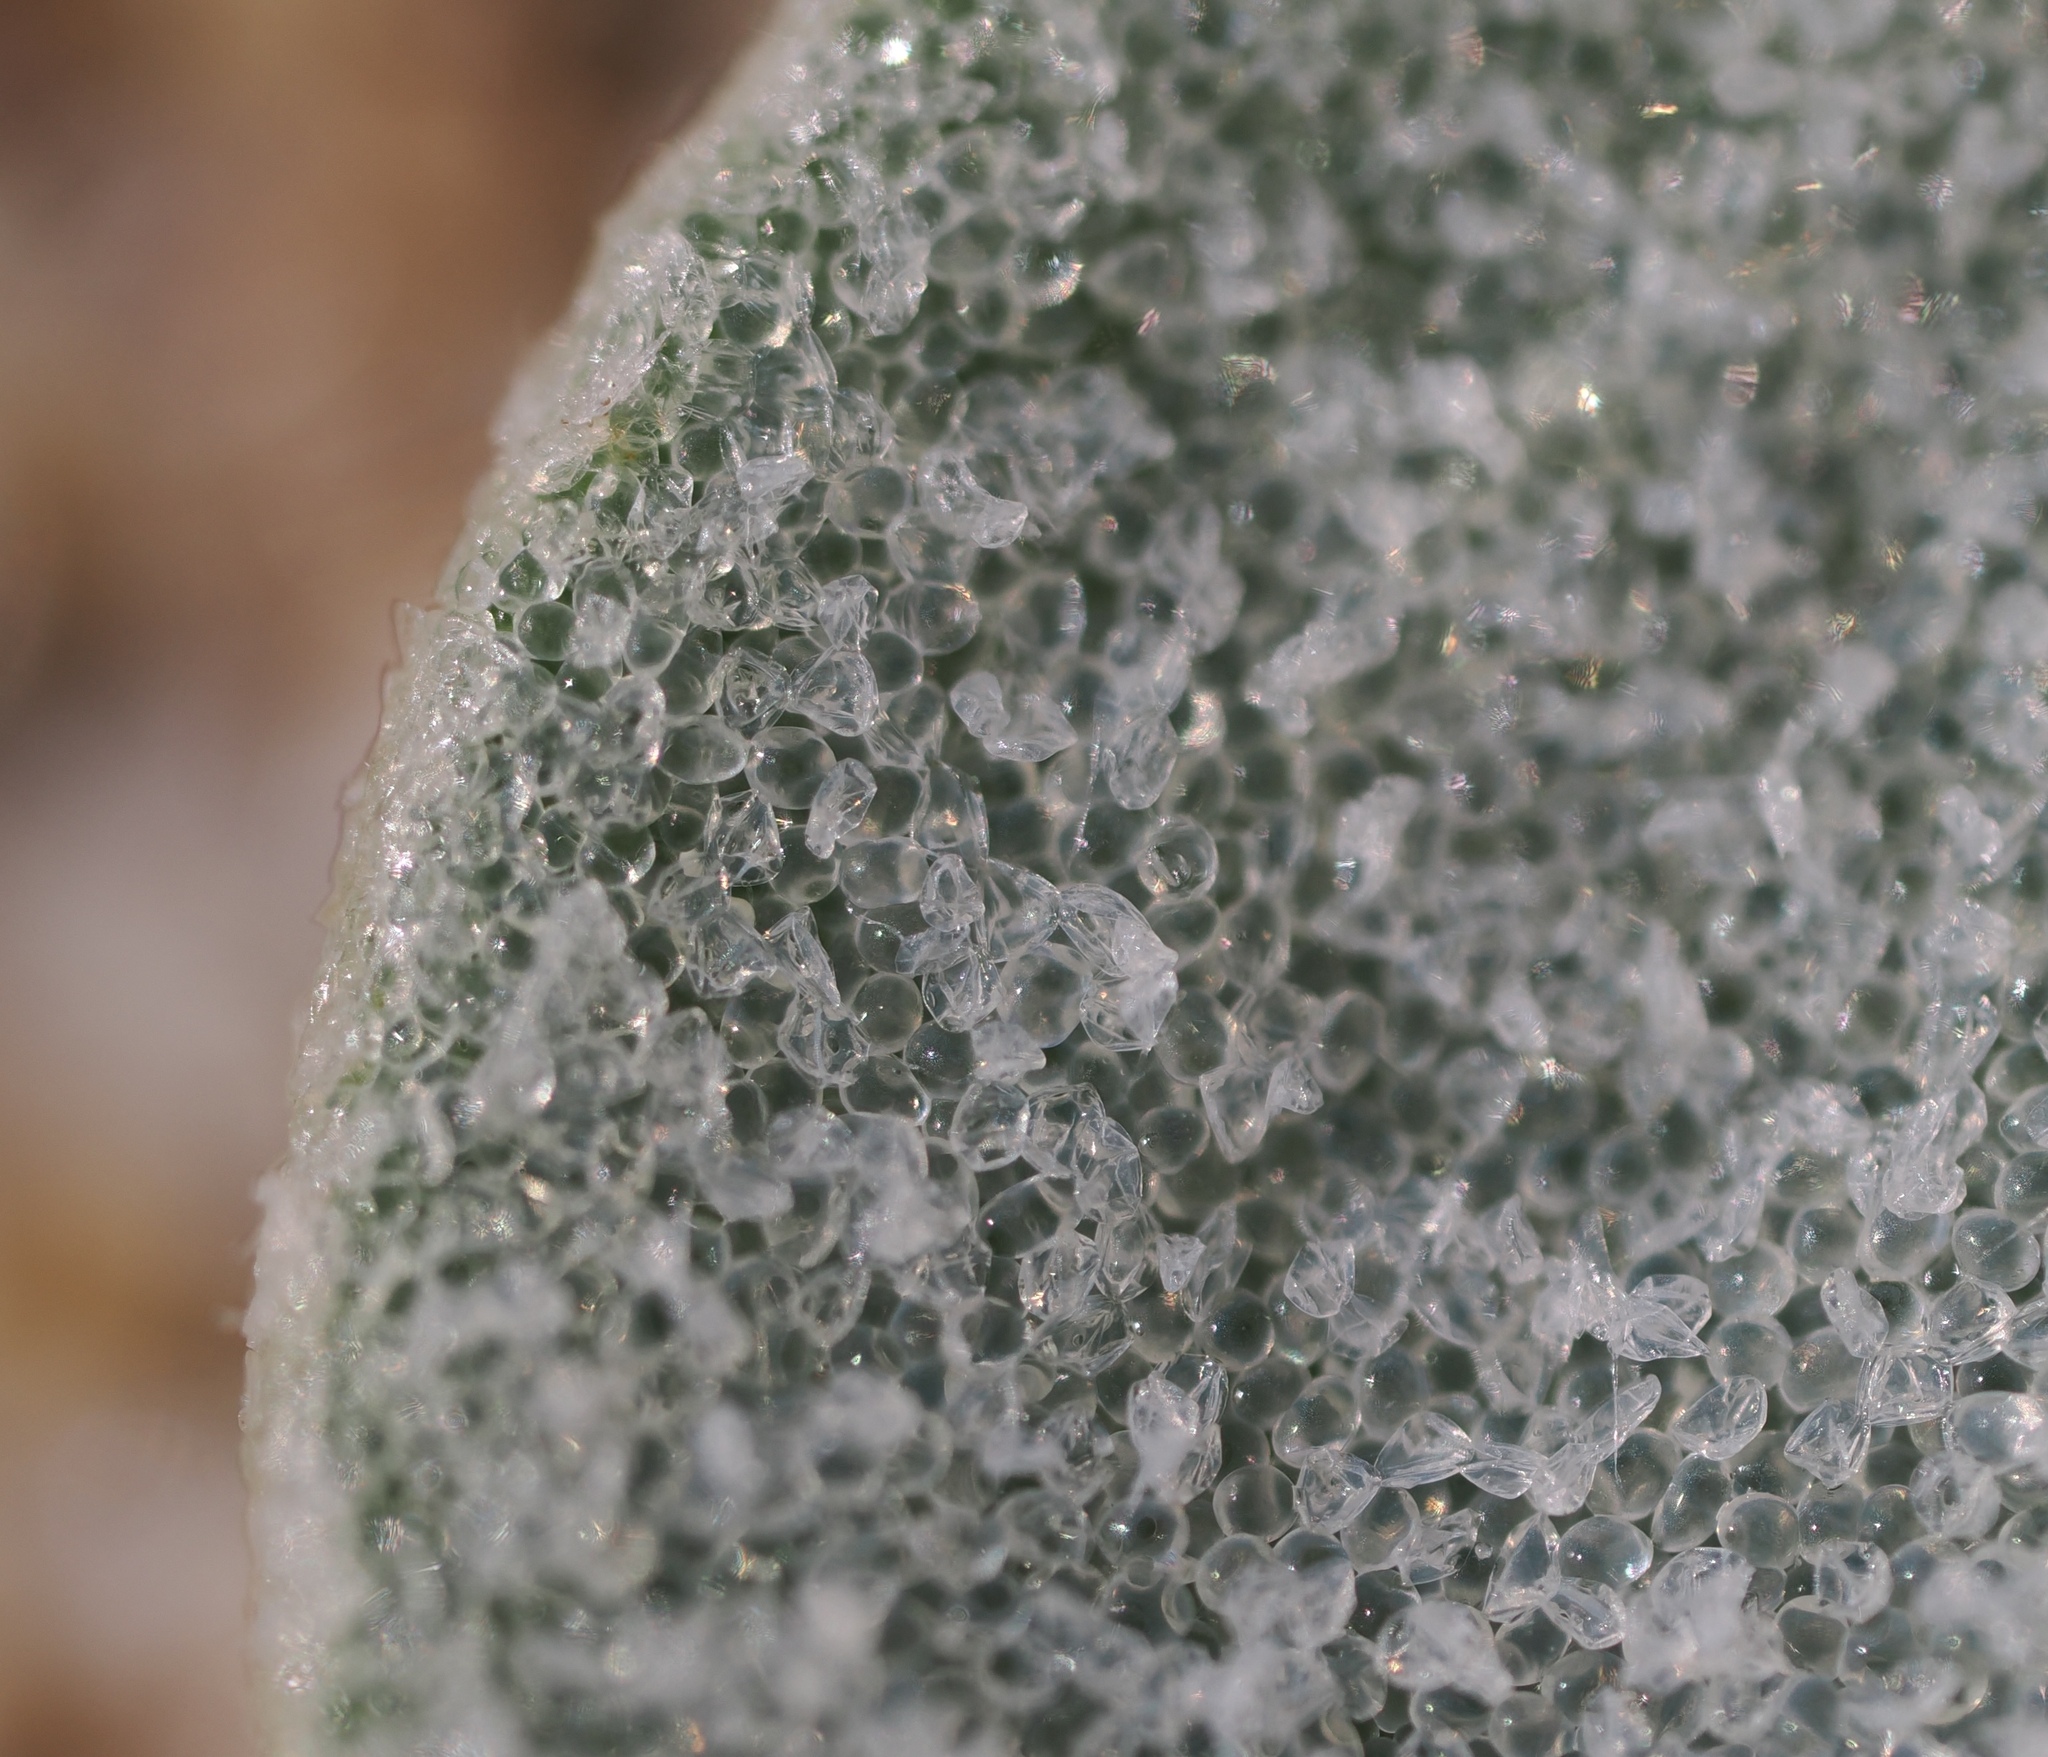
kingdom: Plantae
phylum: Tracheophyta
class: Magnoliopsida
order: Caryophyllales
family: Amaranthaceae
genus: Atriplex
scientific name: Atriplex leucophylla
